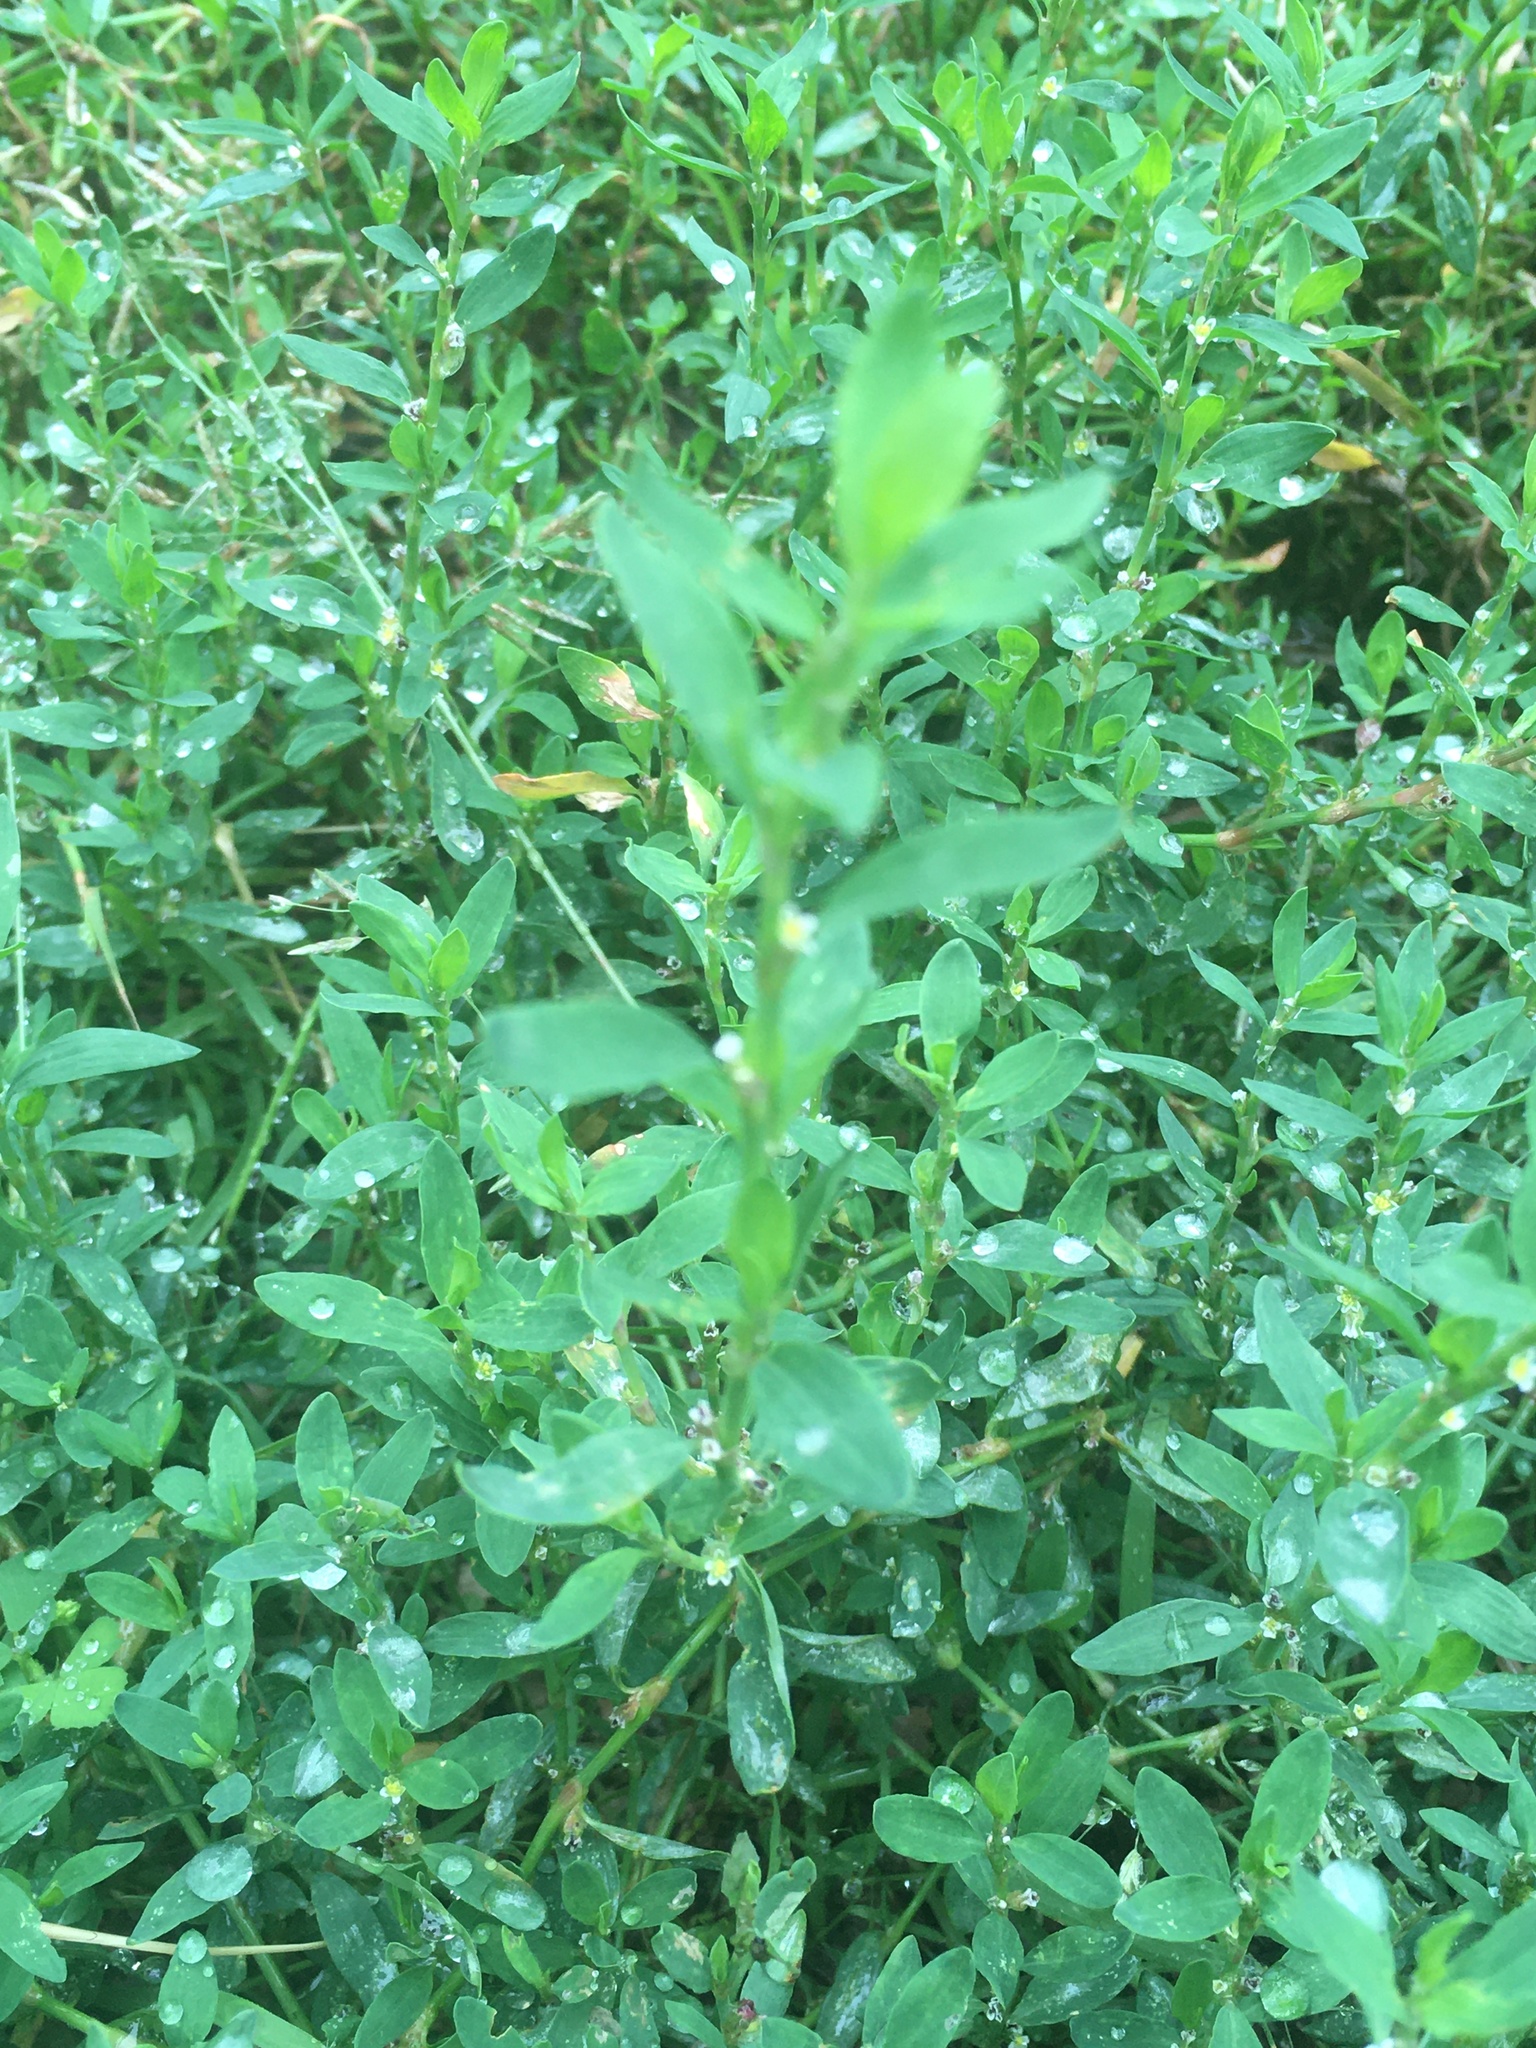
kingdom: Plantae
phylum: Tracheophyta
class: Magnoliopsida
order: Caryophyllales
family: Polygonaceae
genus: Polygonum
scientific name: Polygonum aviculare
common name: Prostrate knotweed
